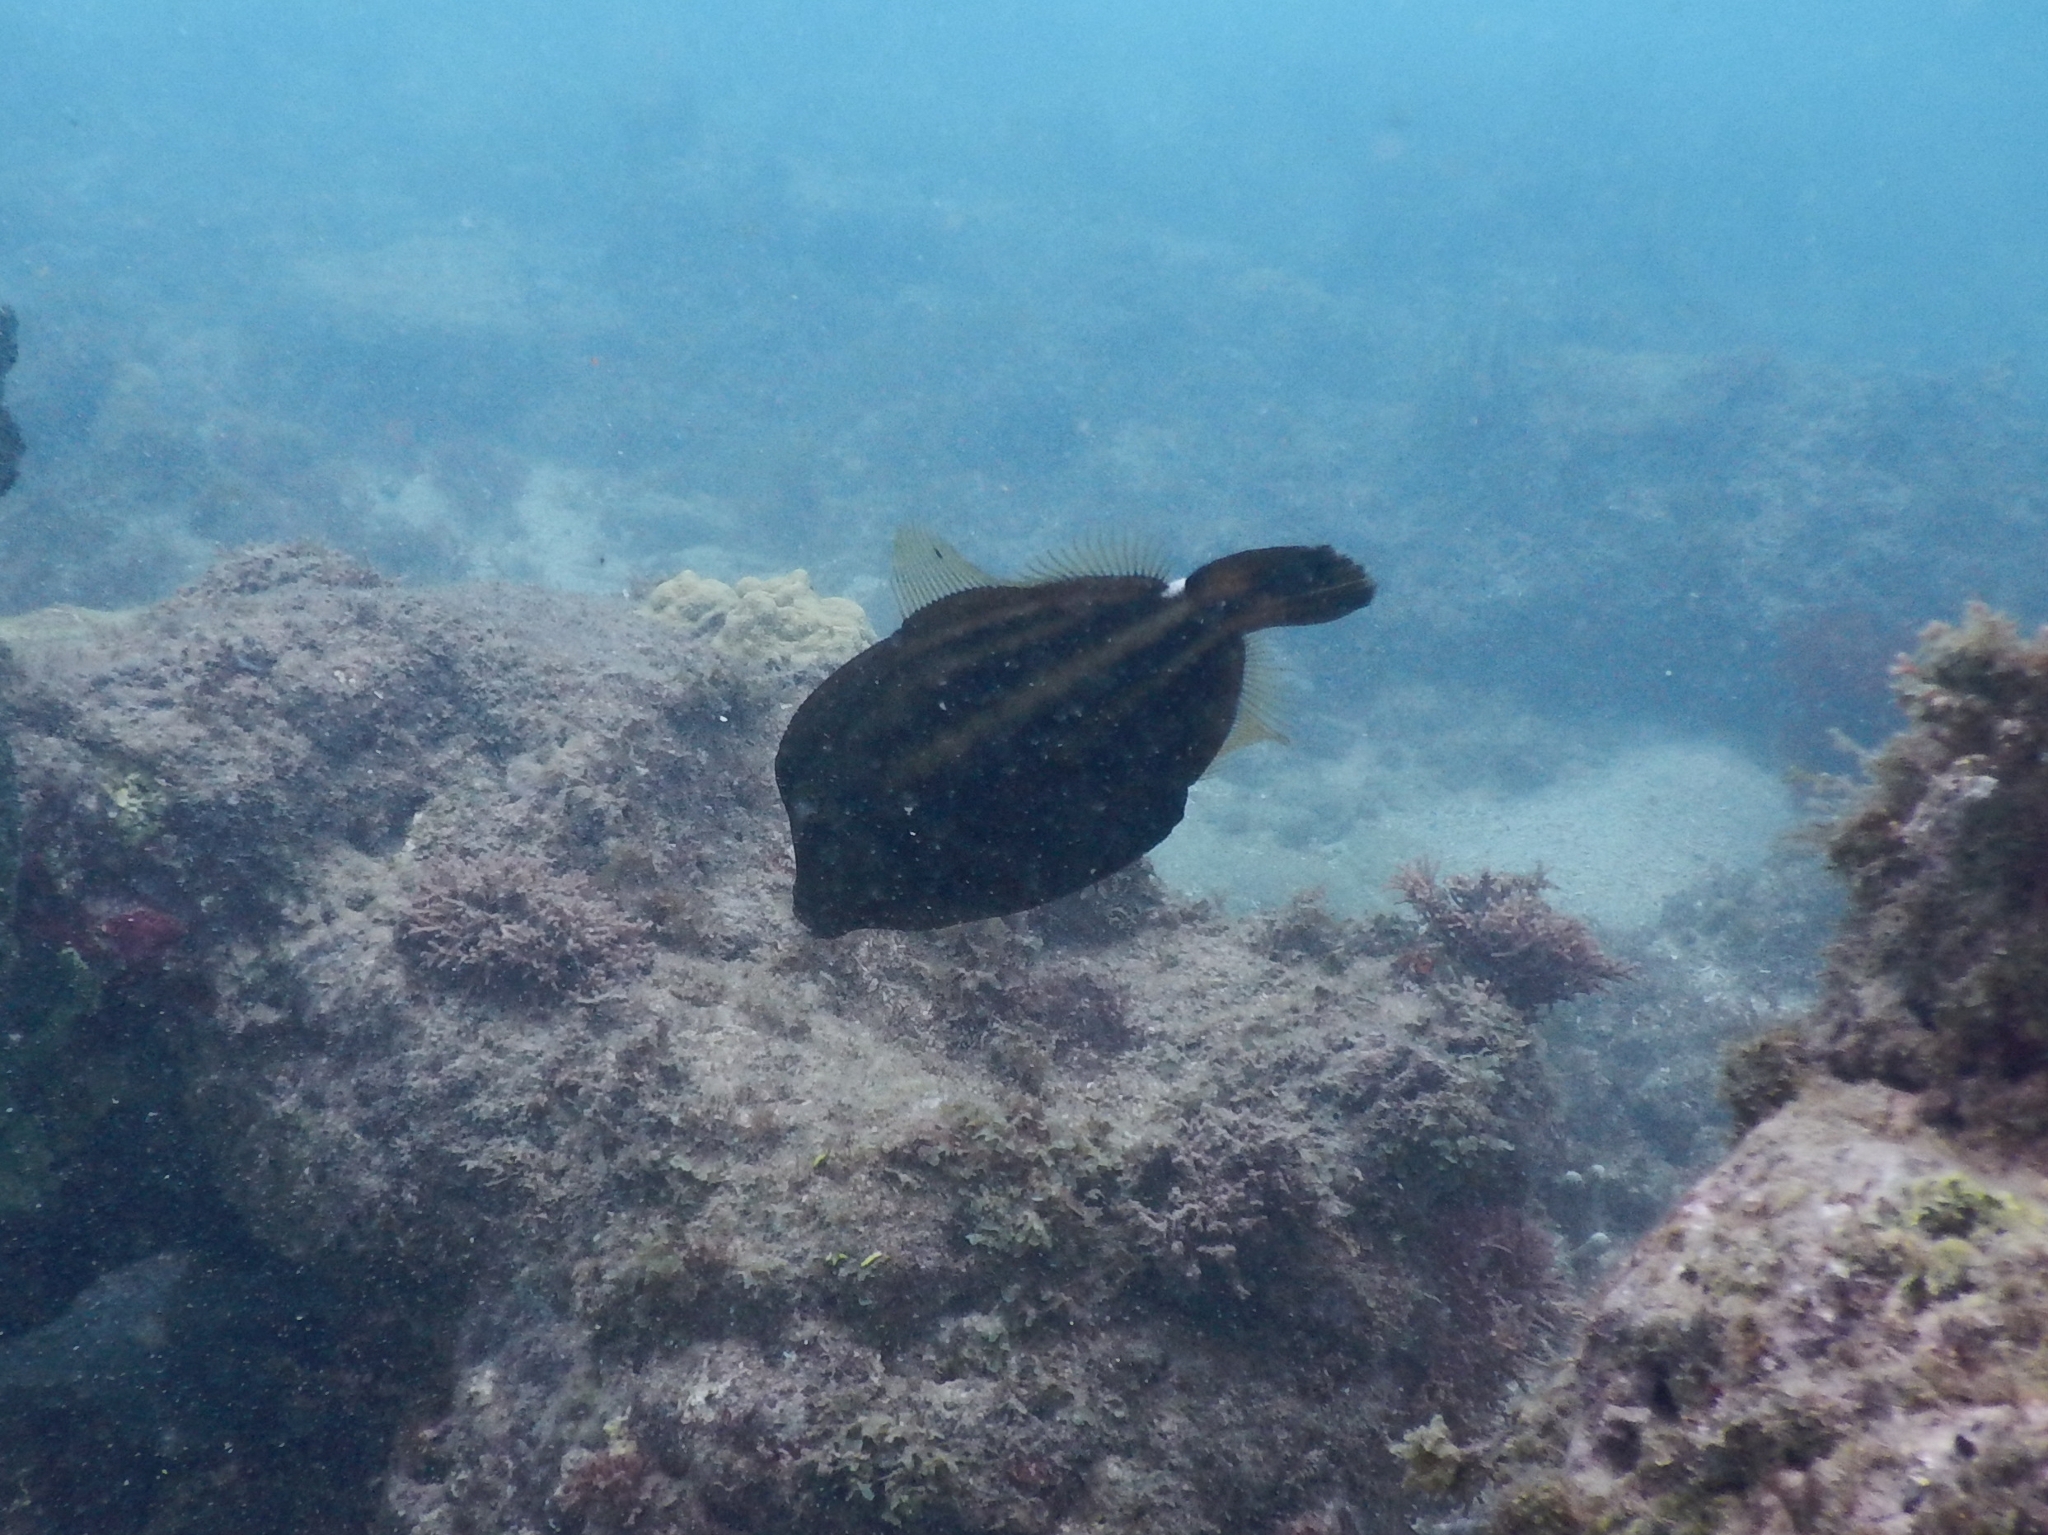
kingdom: Animalia
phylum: Chordata
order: Tetraodontiformes
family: Monacanthidae
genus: Cantherhines
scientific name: Cantherhines pullus
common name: Orangespotted filefish
